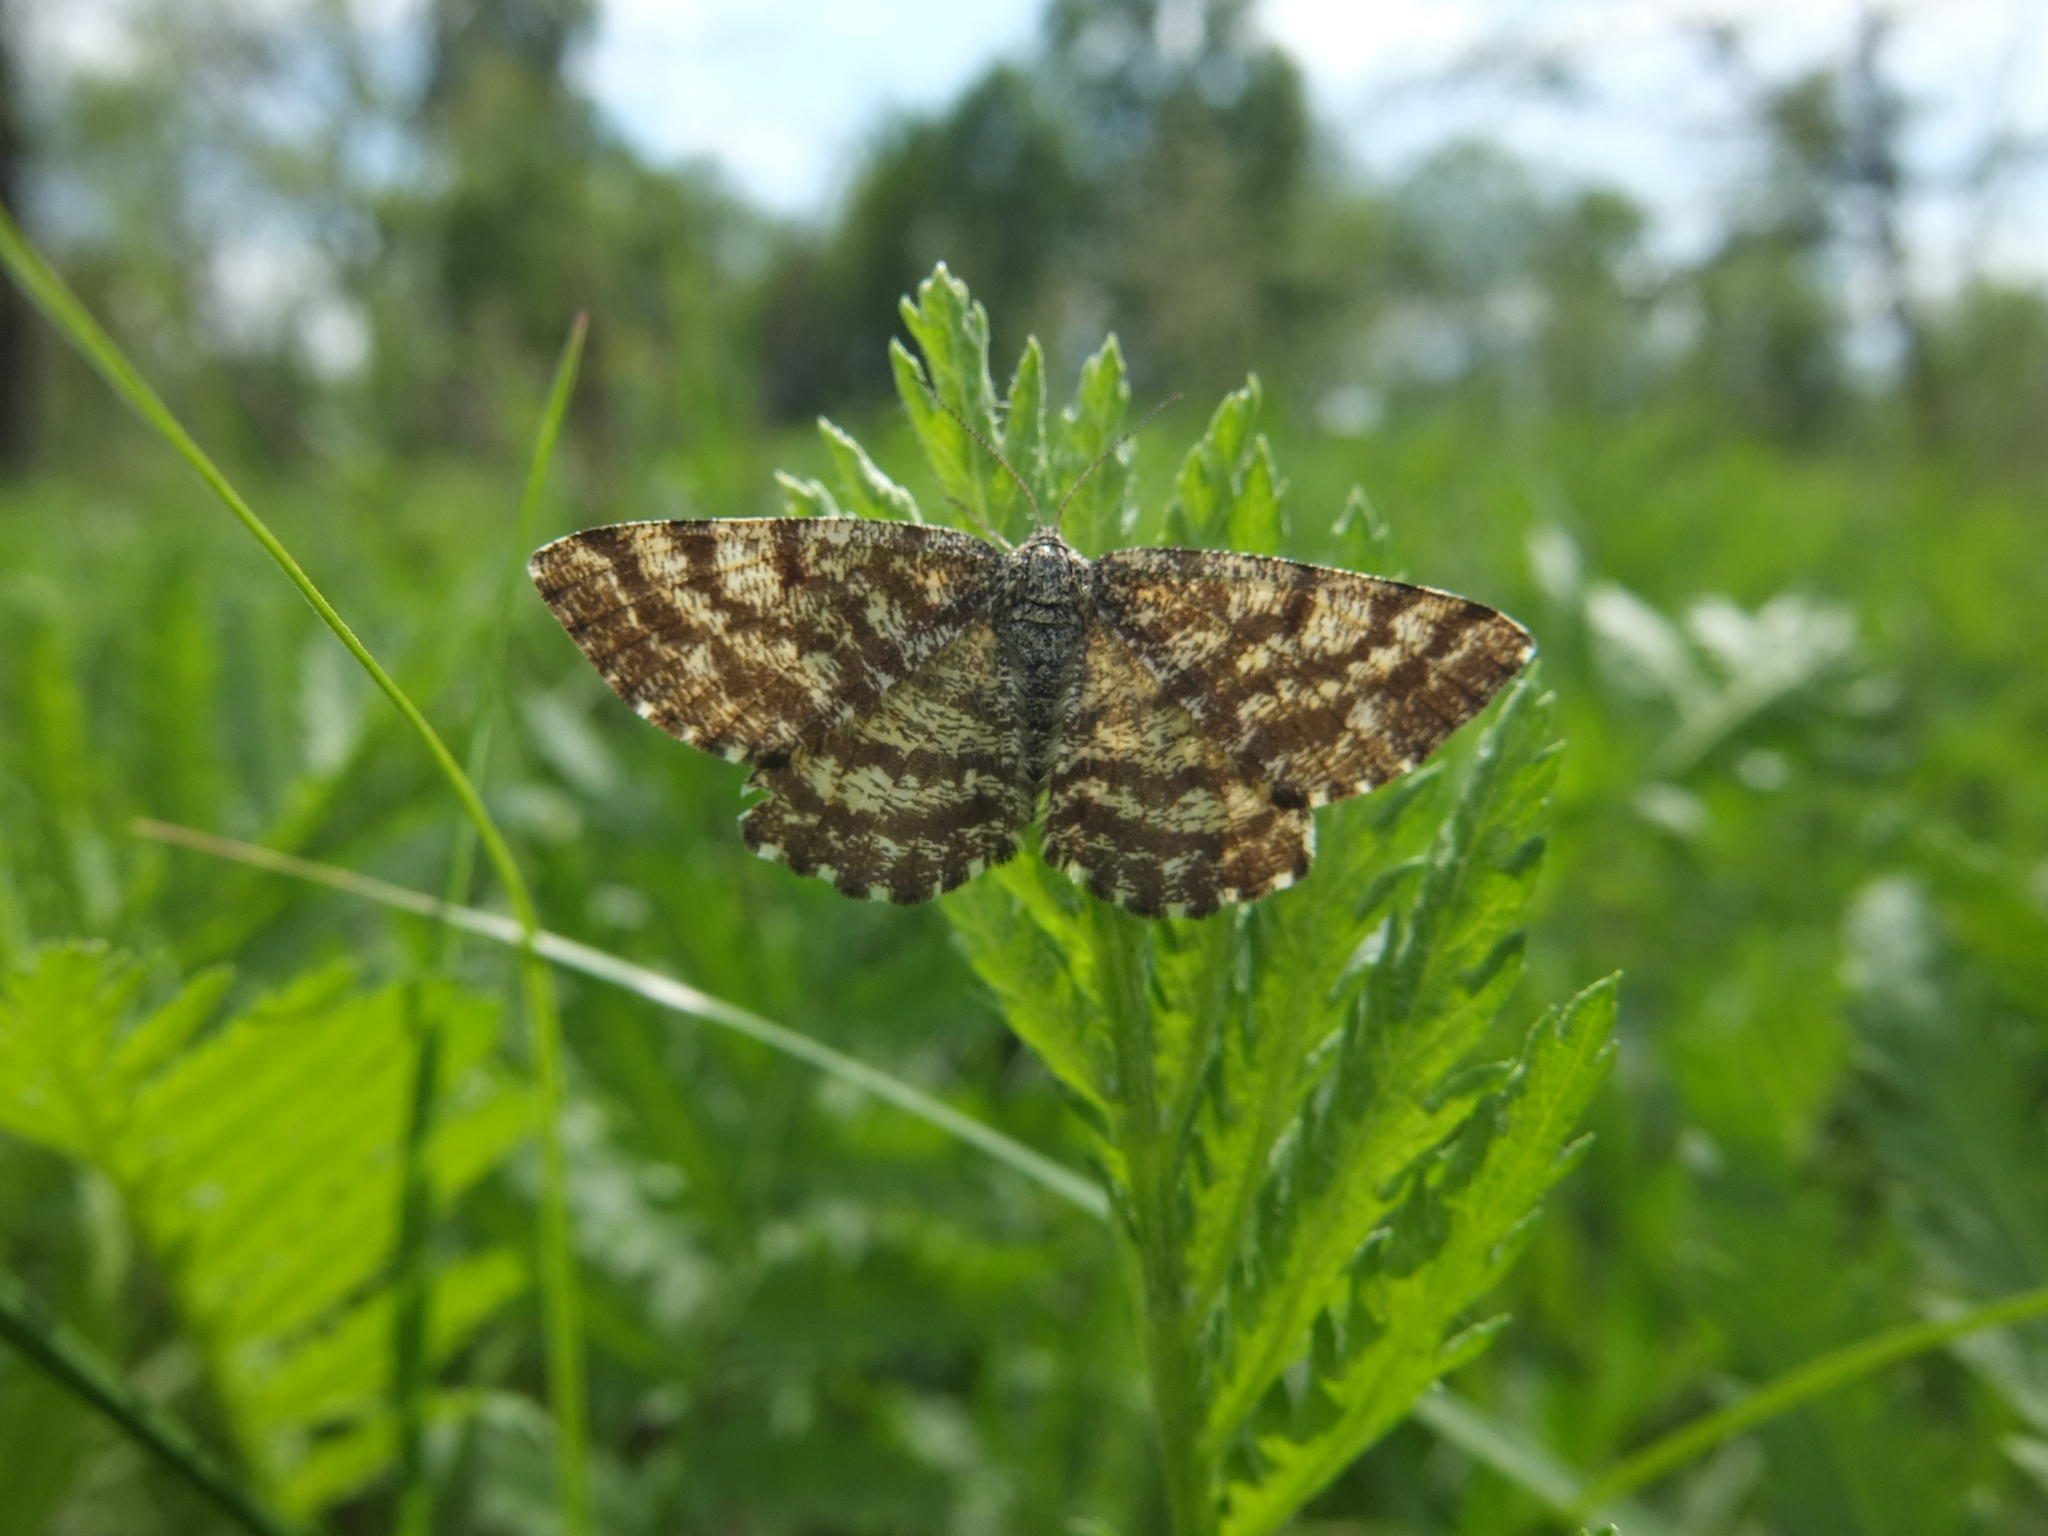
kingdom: Animalia
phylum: Arthropoda
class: Insecta
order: Lepidoptera
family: Geometridae
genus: Ematurga
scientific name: Ematurga atomaria
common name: Common heath
